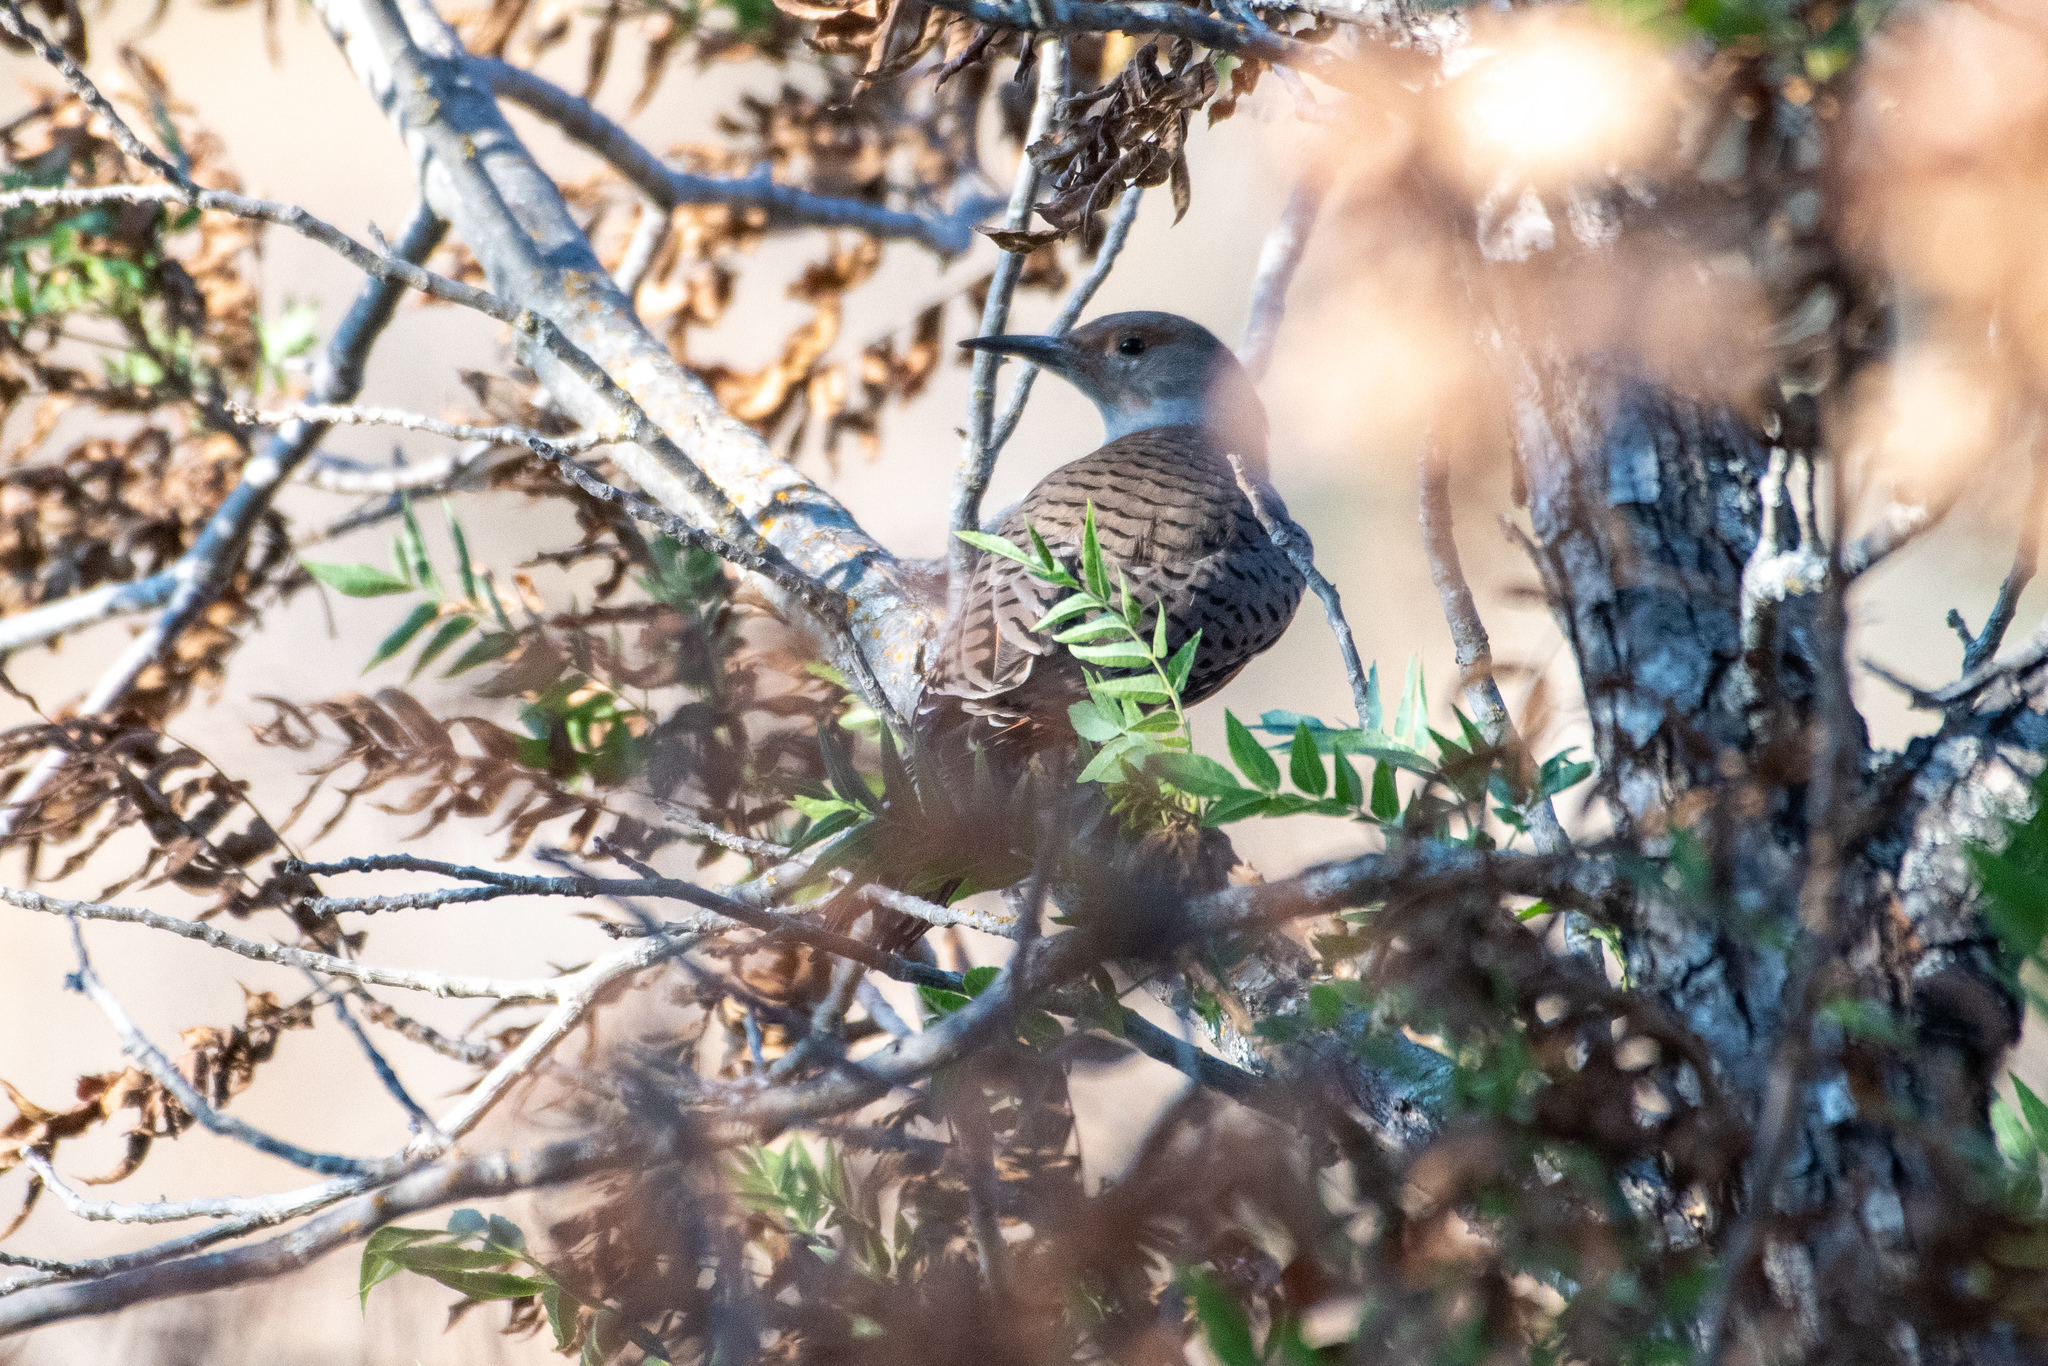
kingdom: Animalia
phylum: Chordata
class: Aves
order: Piciformes
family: Picidae
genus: Colaptes
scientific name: Colaptes auratus
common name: Northern flicker
